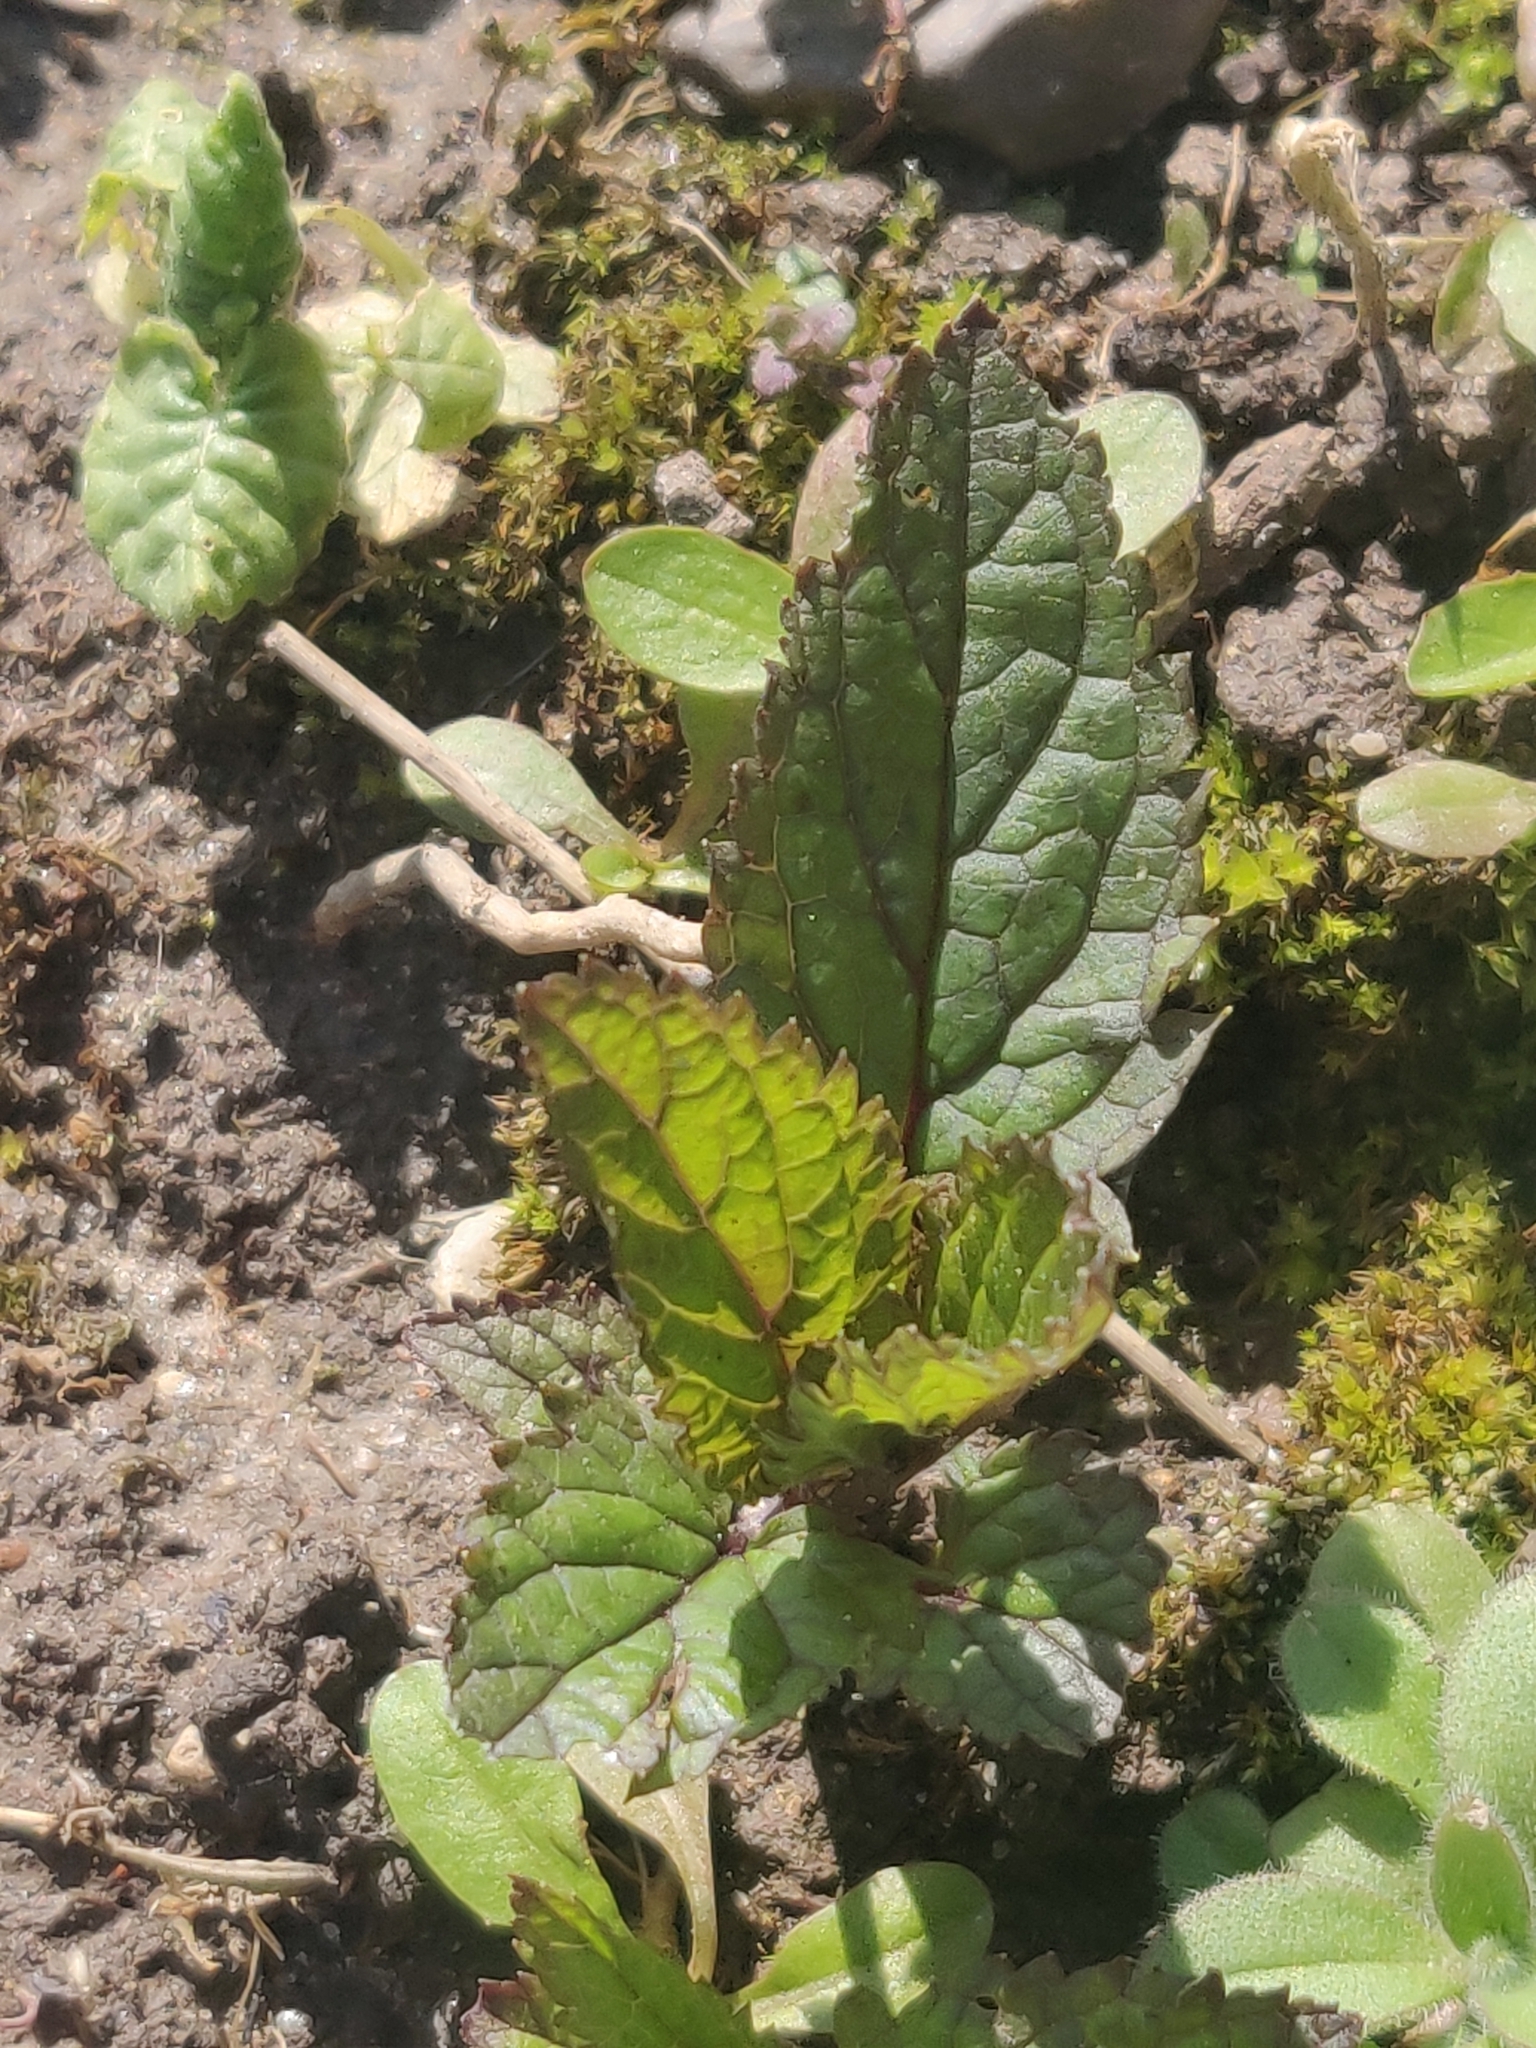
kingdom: Plantae
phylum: Tracheophyta
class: Magnoliopsida
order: Lamiales
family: Scrophulariaceae
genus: Scrophularia
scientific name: Scrophularia nodosa
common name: Common figwort
